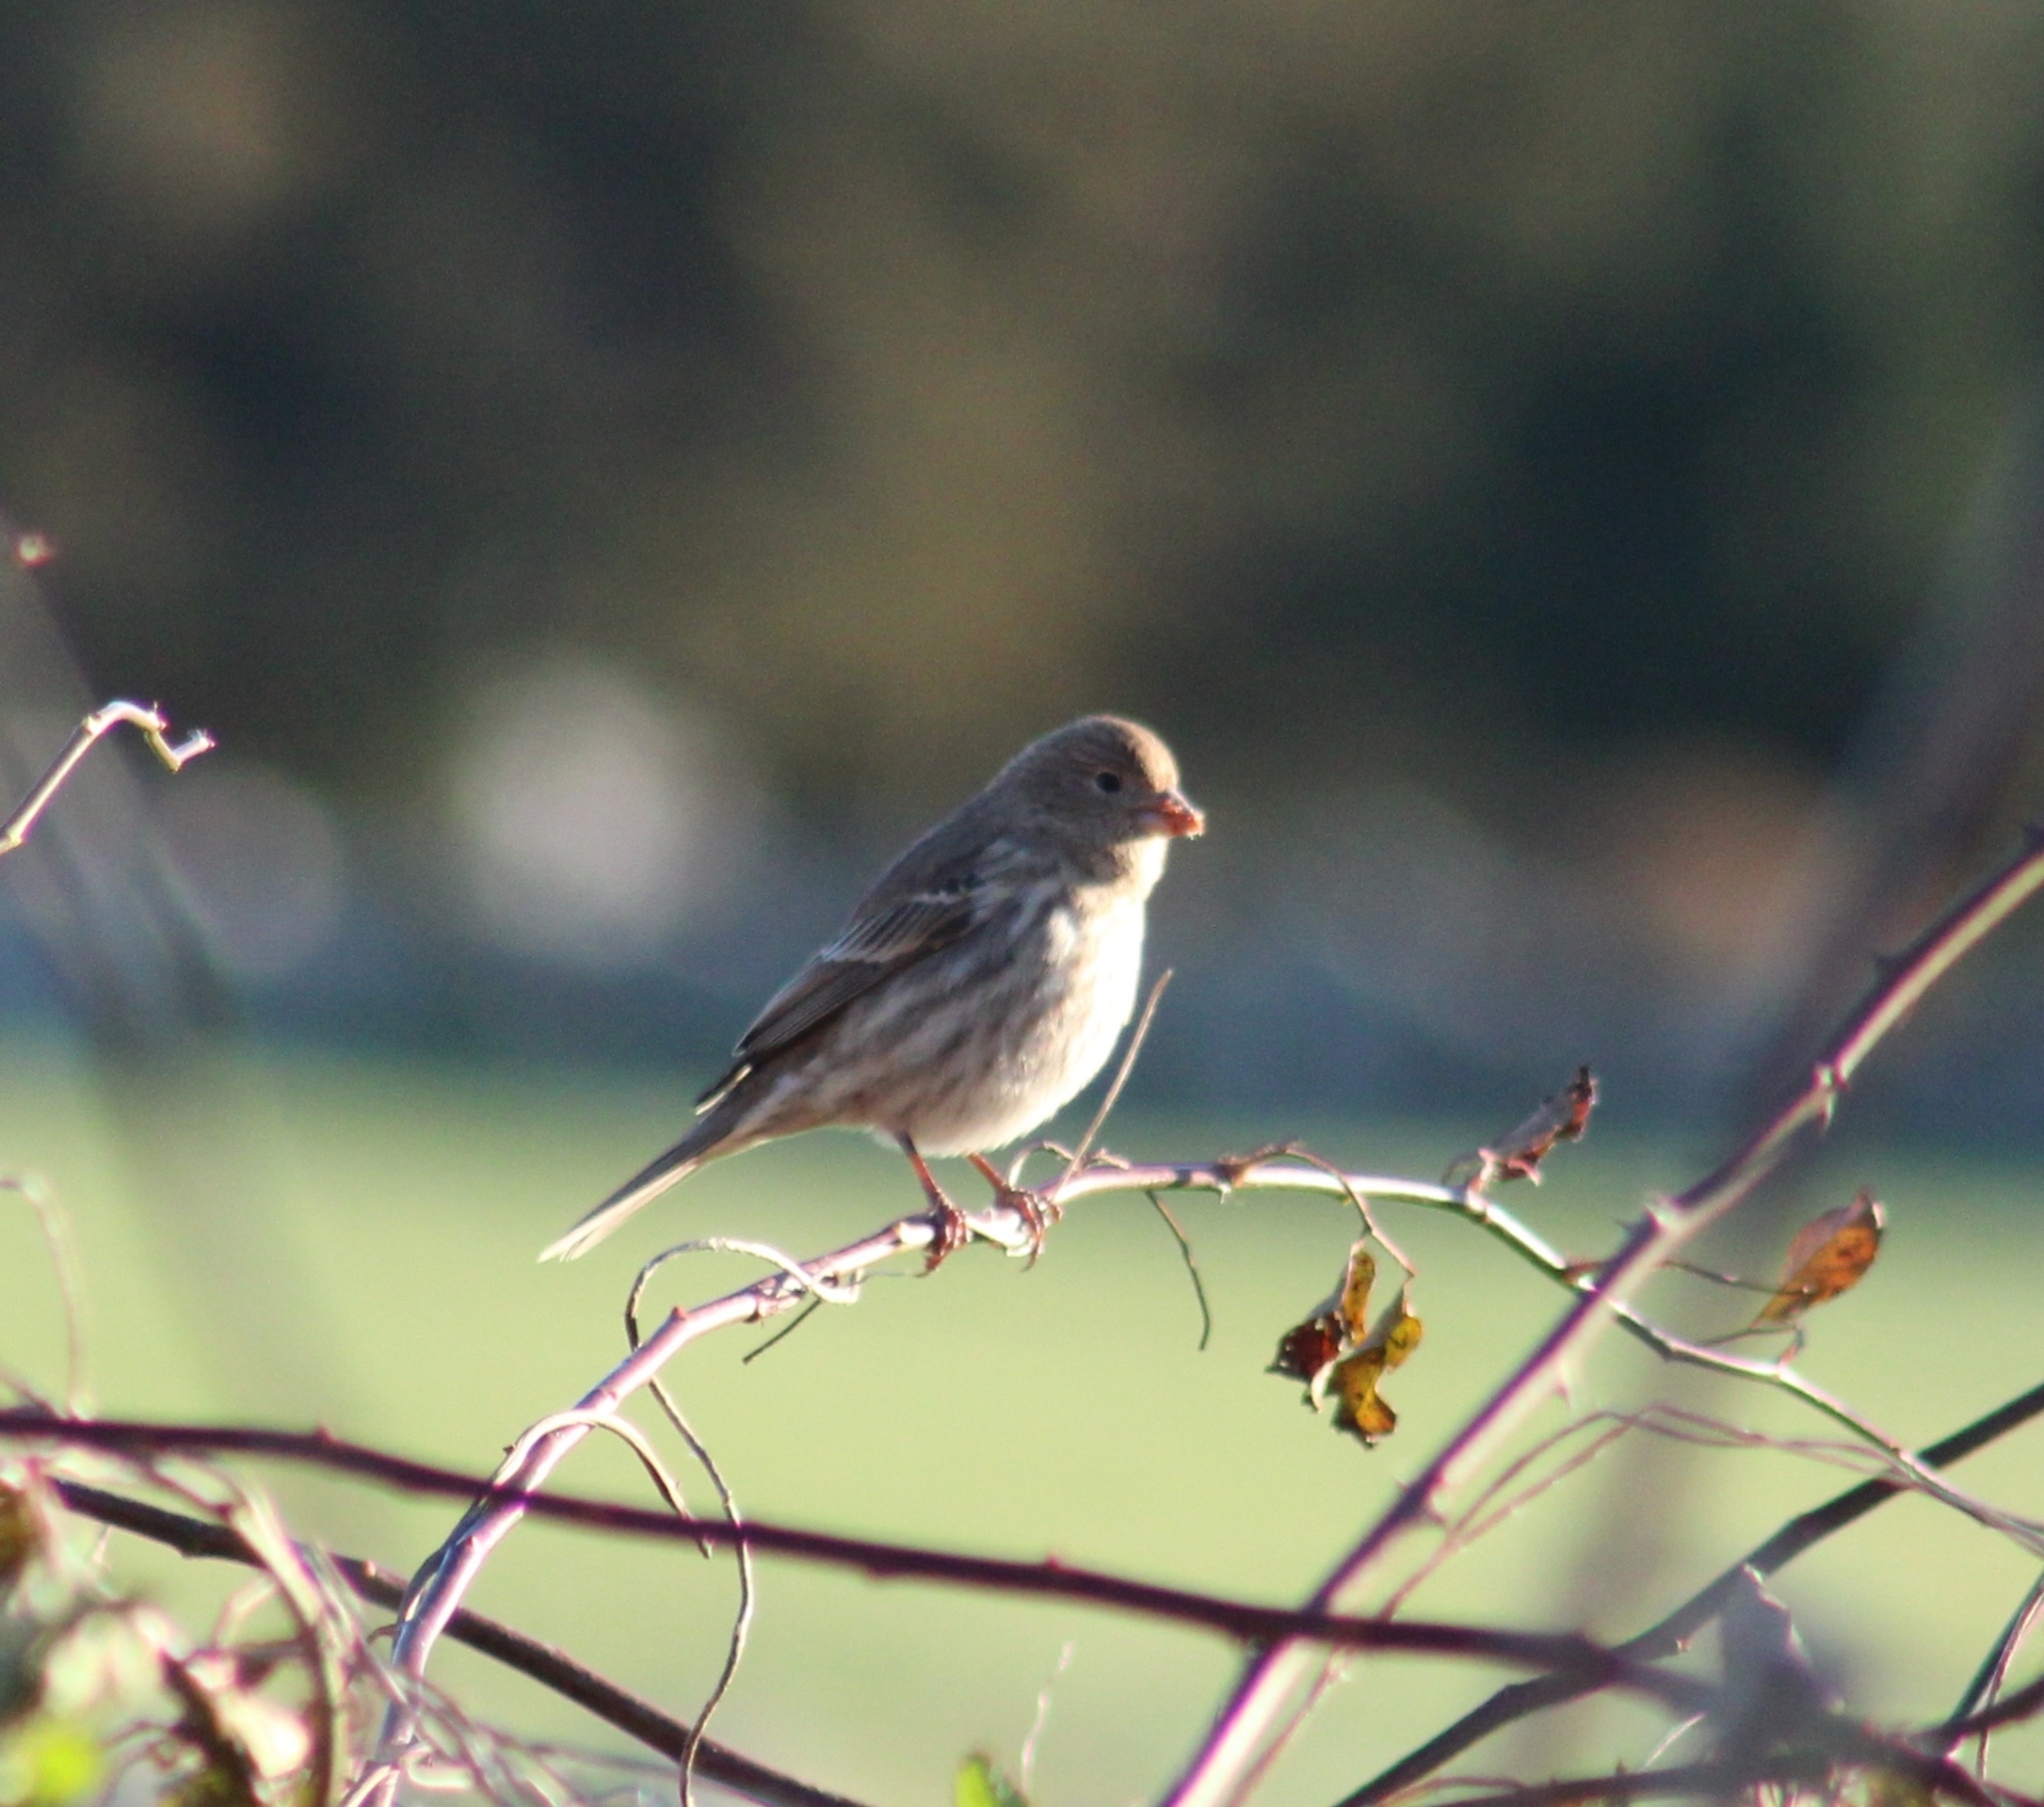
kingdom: Animalia
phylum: Chordata
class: Aves
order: Passeriformes
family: Fringillidae
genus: Haemorhous
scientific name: Haemorhous mexicanus
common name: House finch
